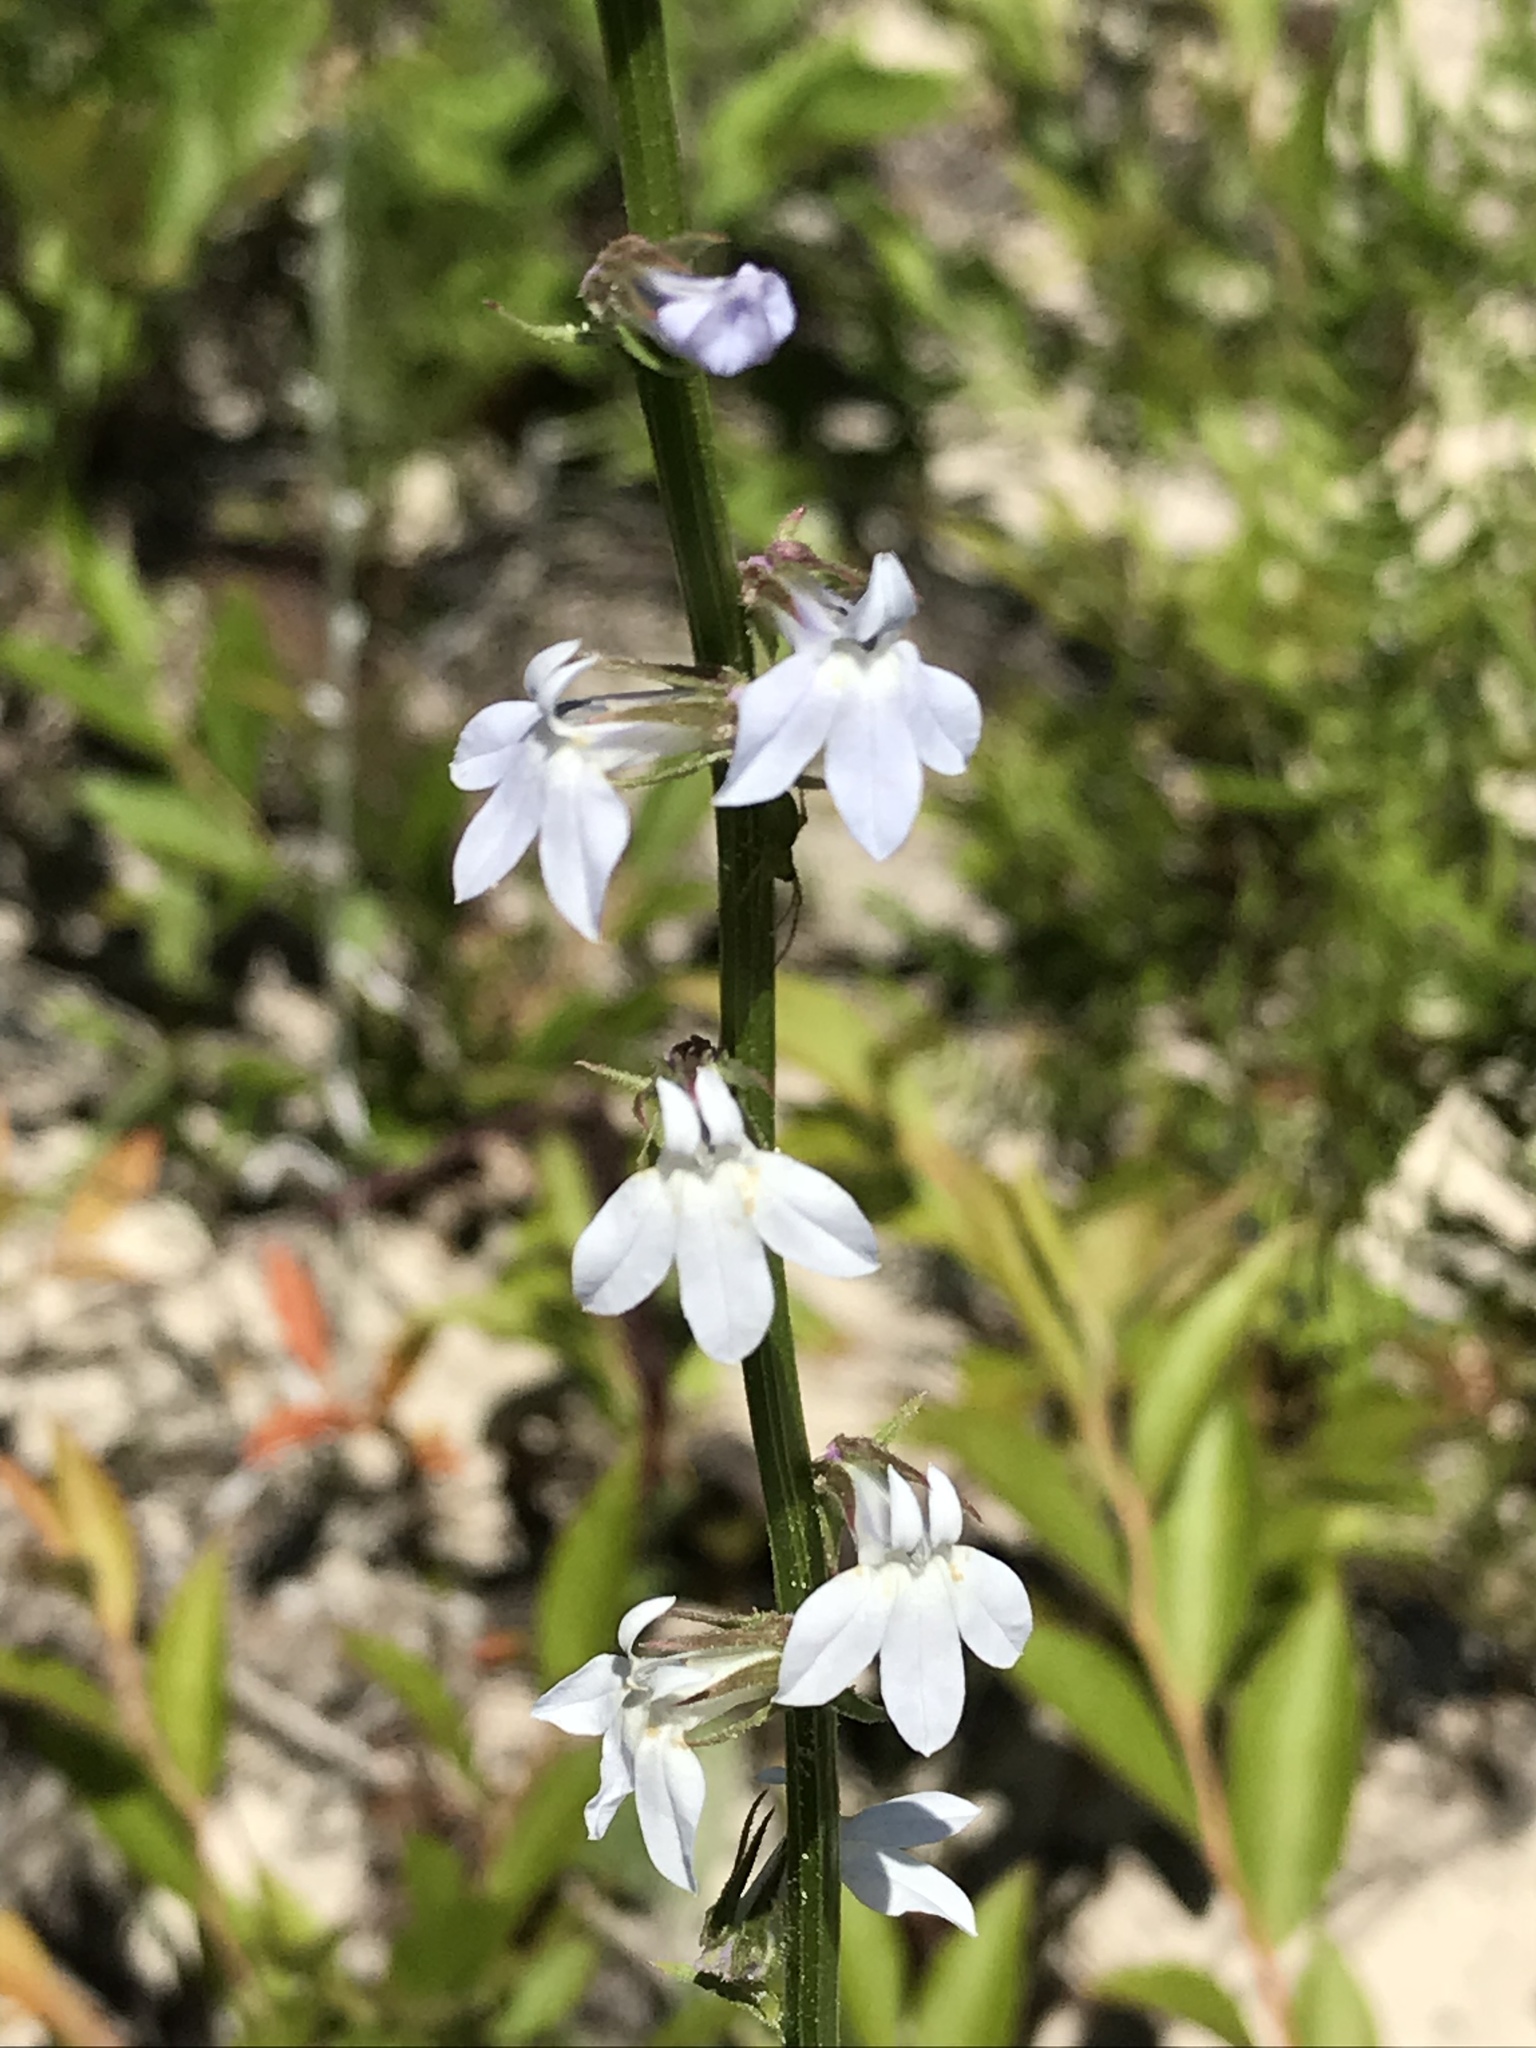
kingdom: Plantae
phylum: Tracheophyta
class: Magnoliopsida
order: Asterales
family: Campanulaceae
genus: Lobelia
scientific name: Lobelia appendiculata
